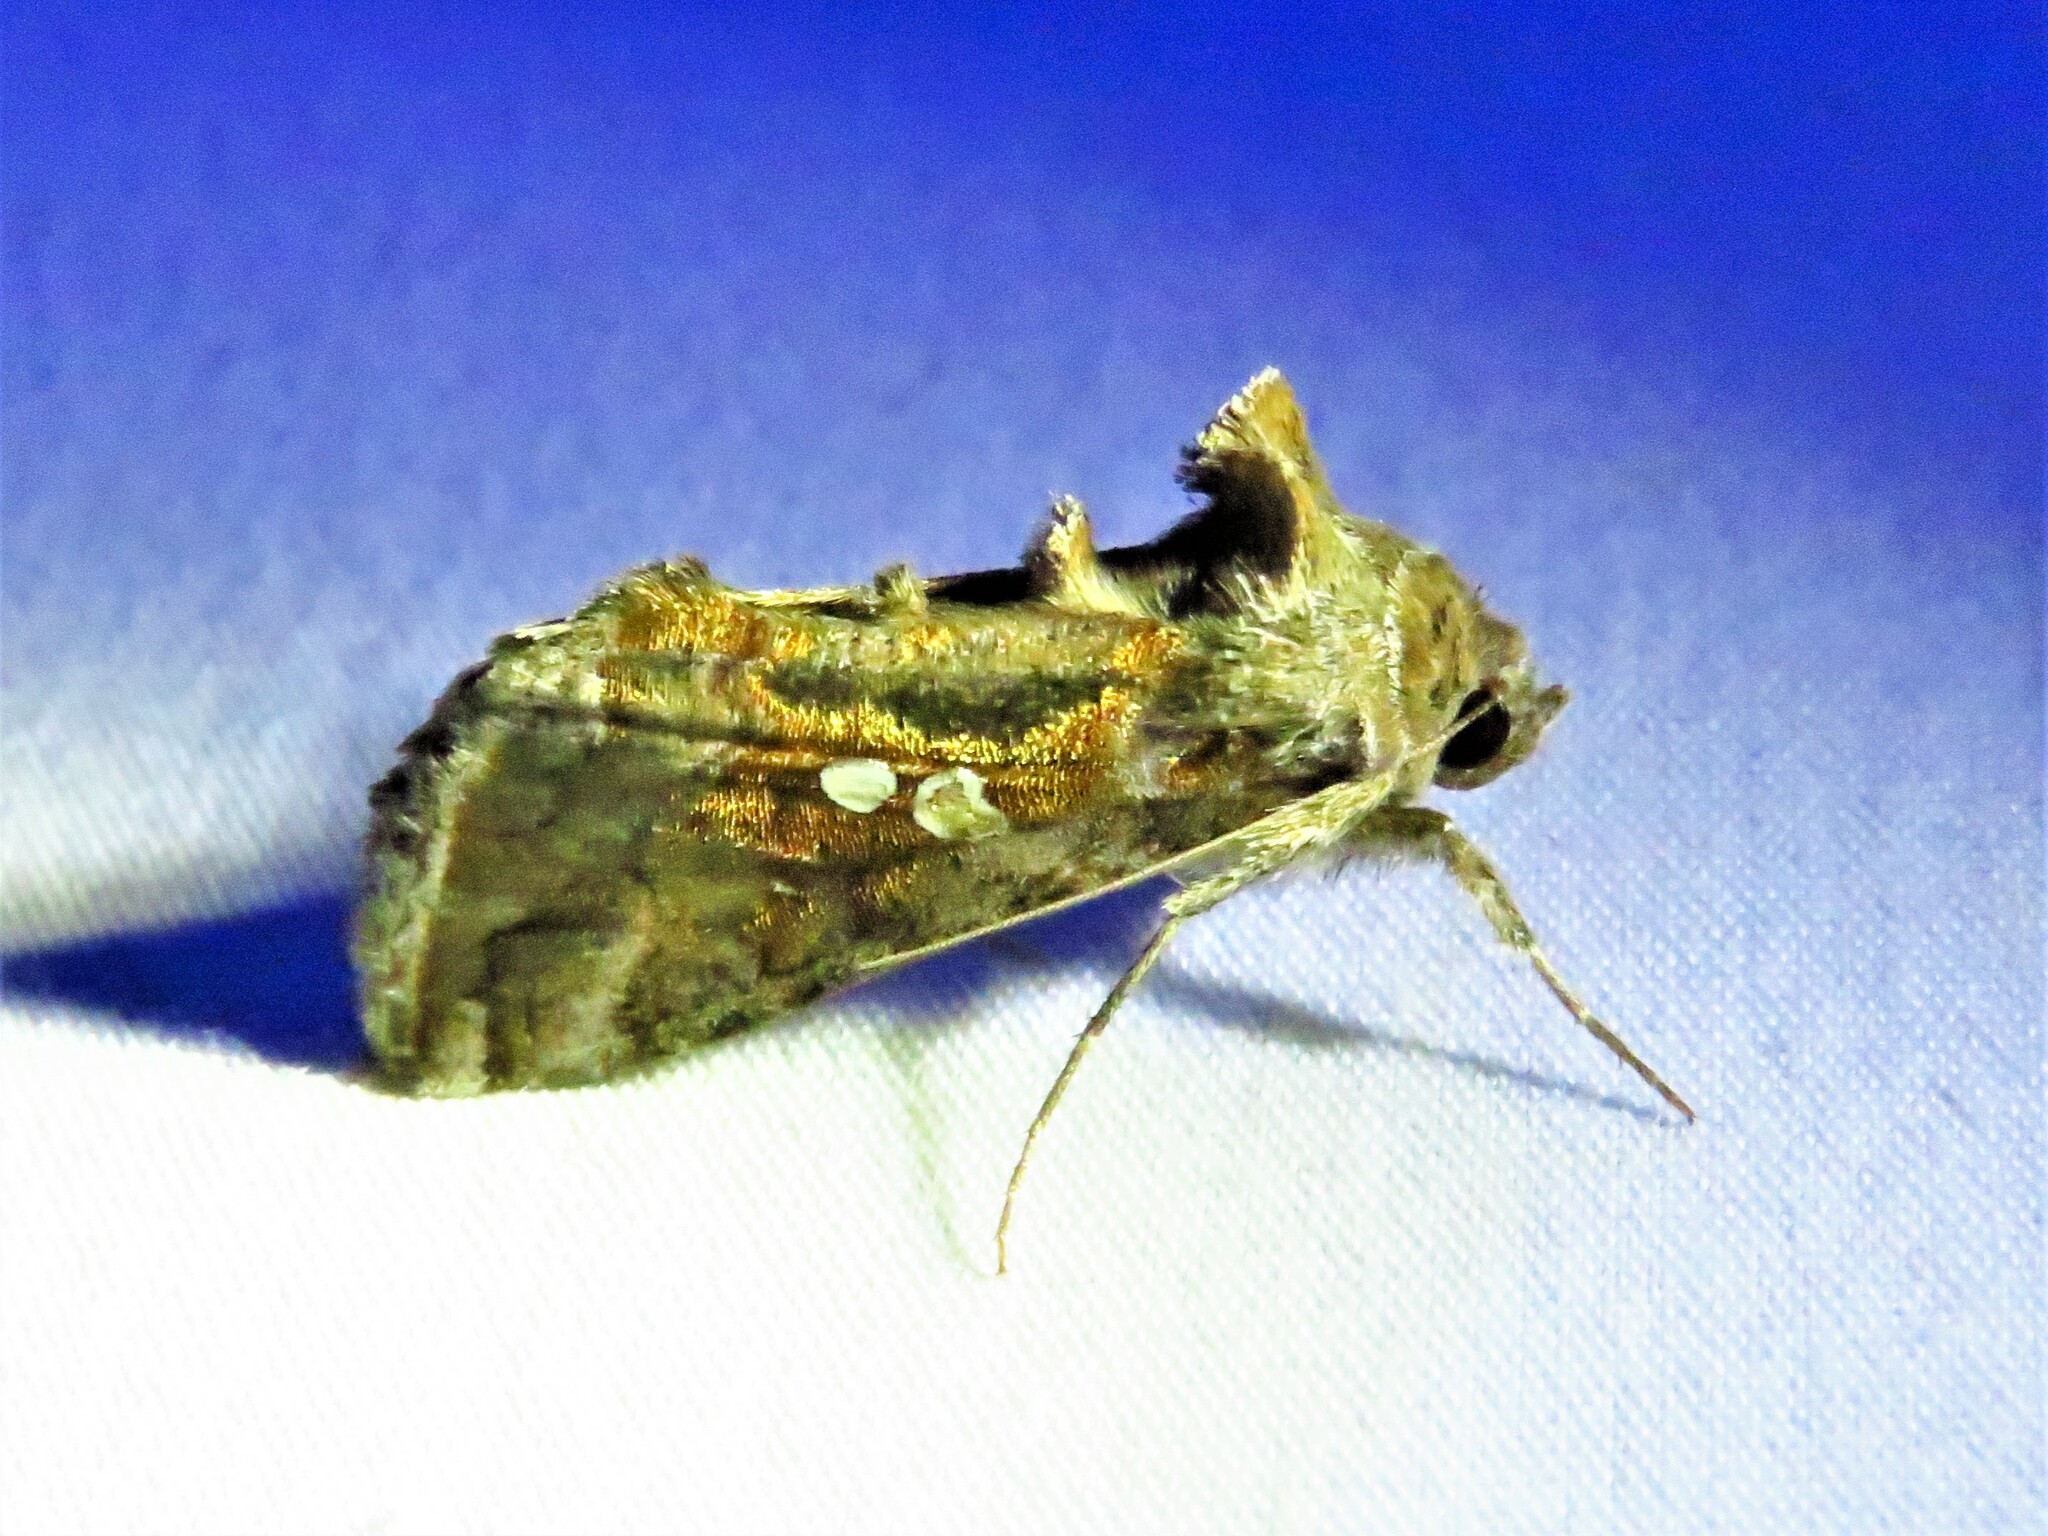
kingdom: Animalia
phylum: Arthropoda
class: Insecta
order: Lepidoptera
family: Noctuidae
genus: Chrysodeixis
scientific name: Chrysodeixis includens
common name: Cutworm moth
